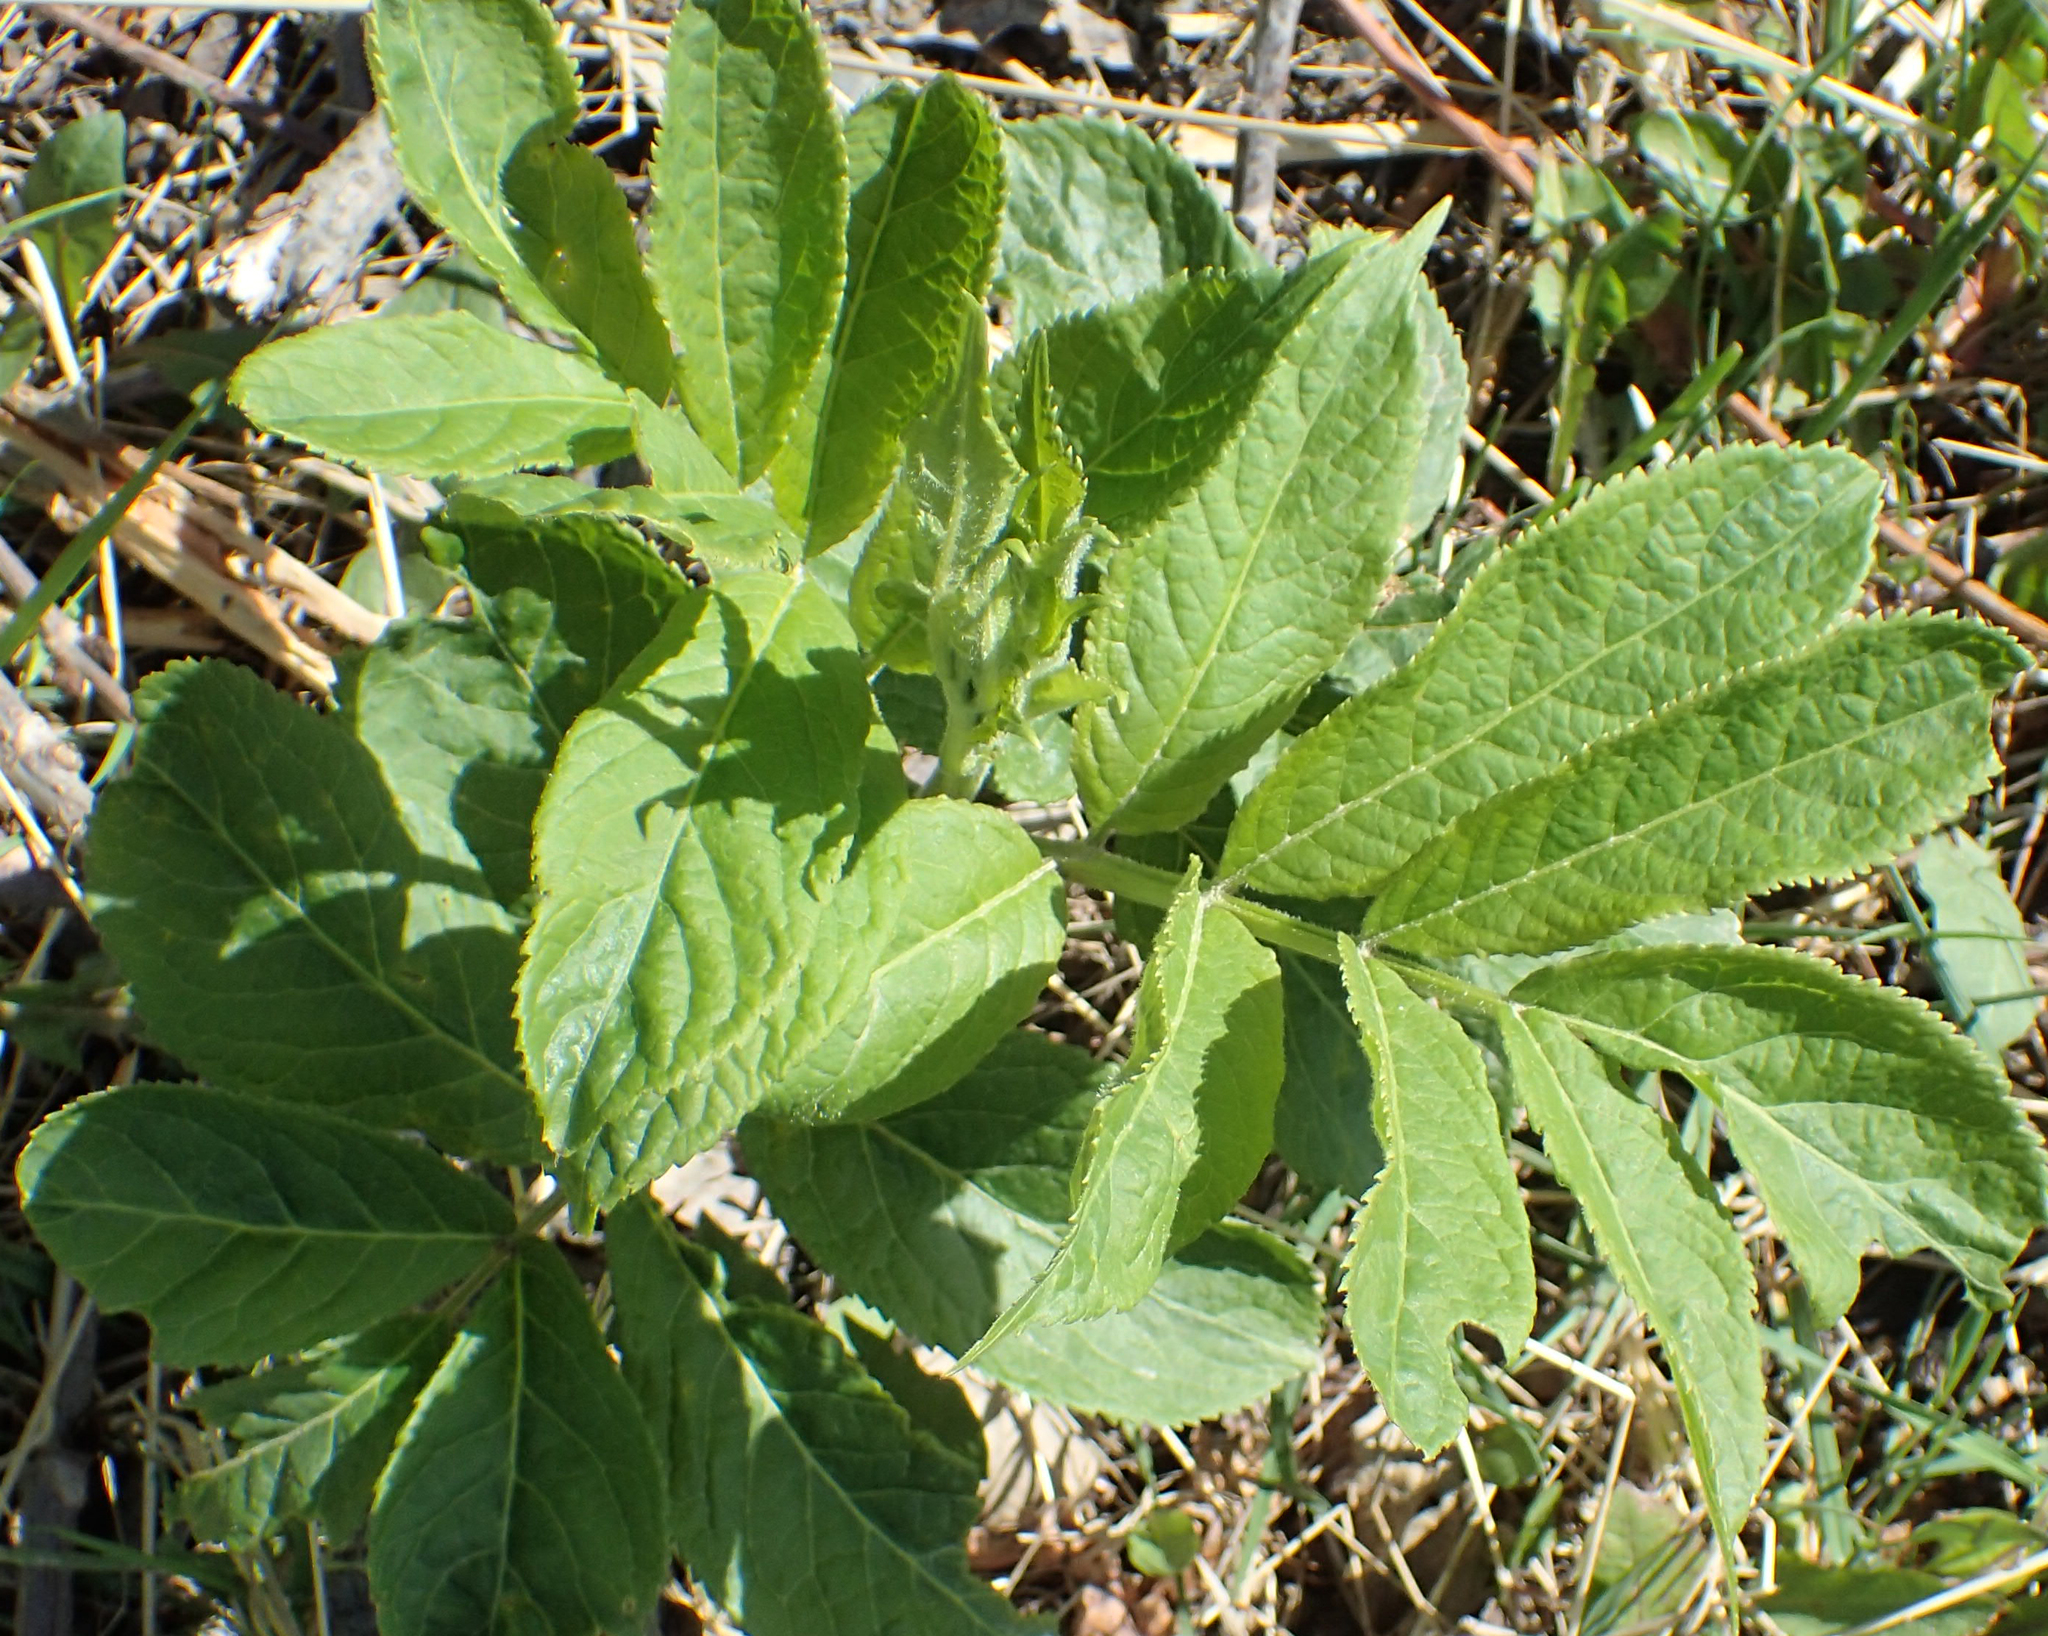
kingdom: Plantae
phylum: Tracheophyta
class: Magnoliopsida
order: Dipsacales
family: Viburnaceae
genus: Sambucus
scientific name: Sambucus racemosa
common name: Red-berried elder
